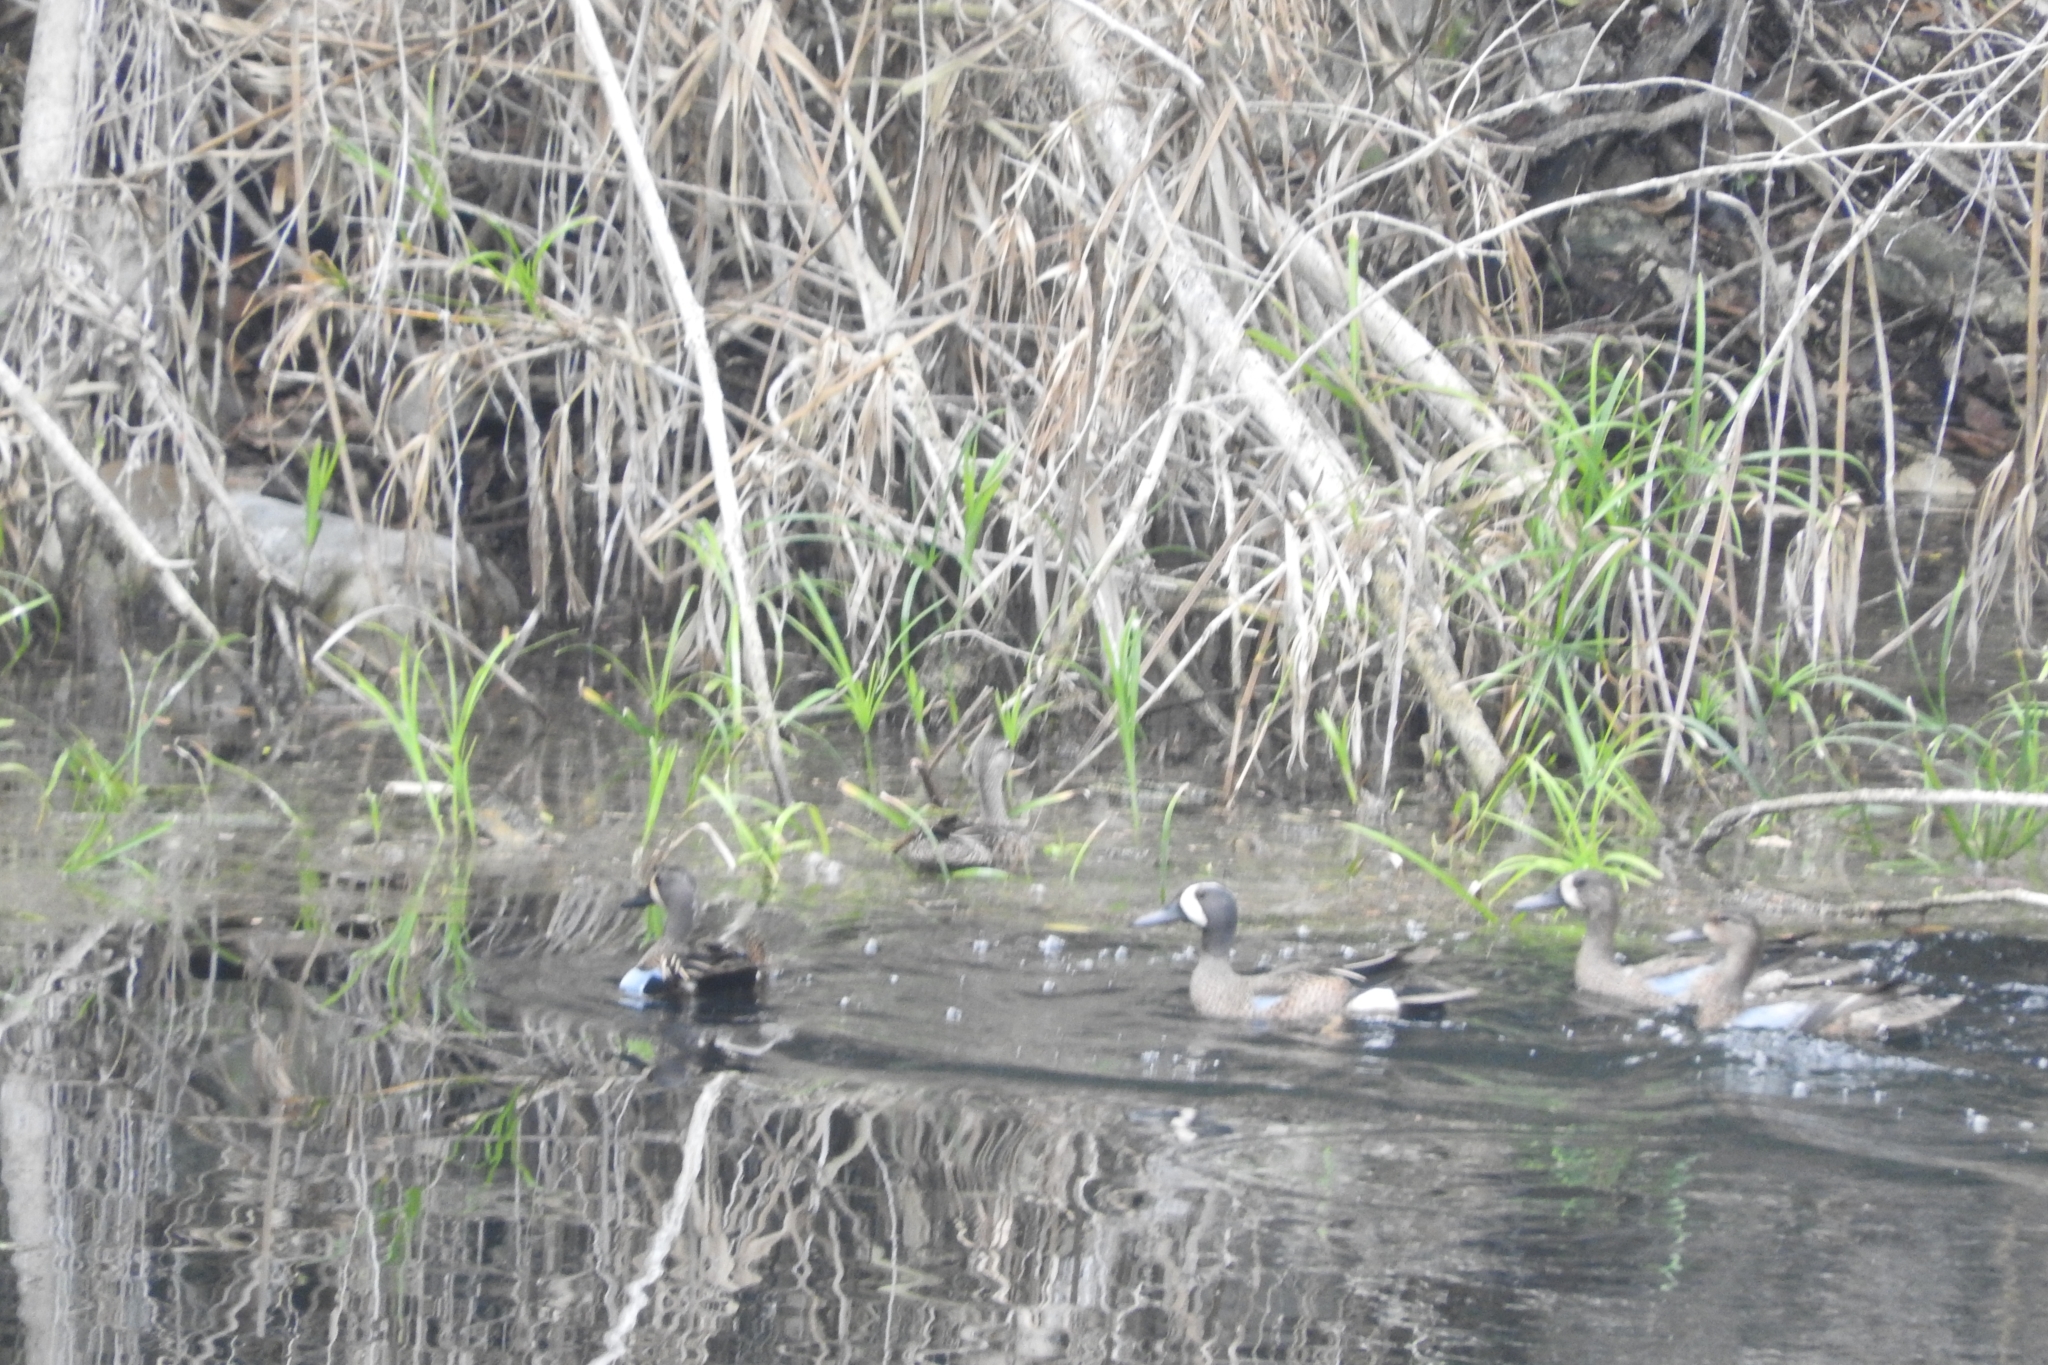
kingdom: Animalia
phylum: Chordata
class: Aves
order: Anseriformes
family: Anatidae
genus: Spatula
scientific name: Spatula discors
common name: Blue-winged teal
